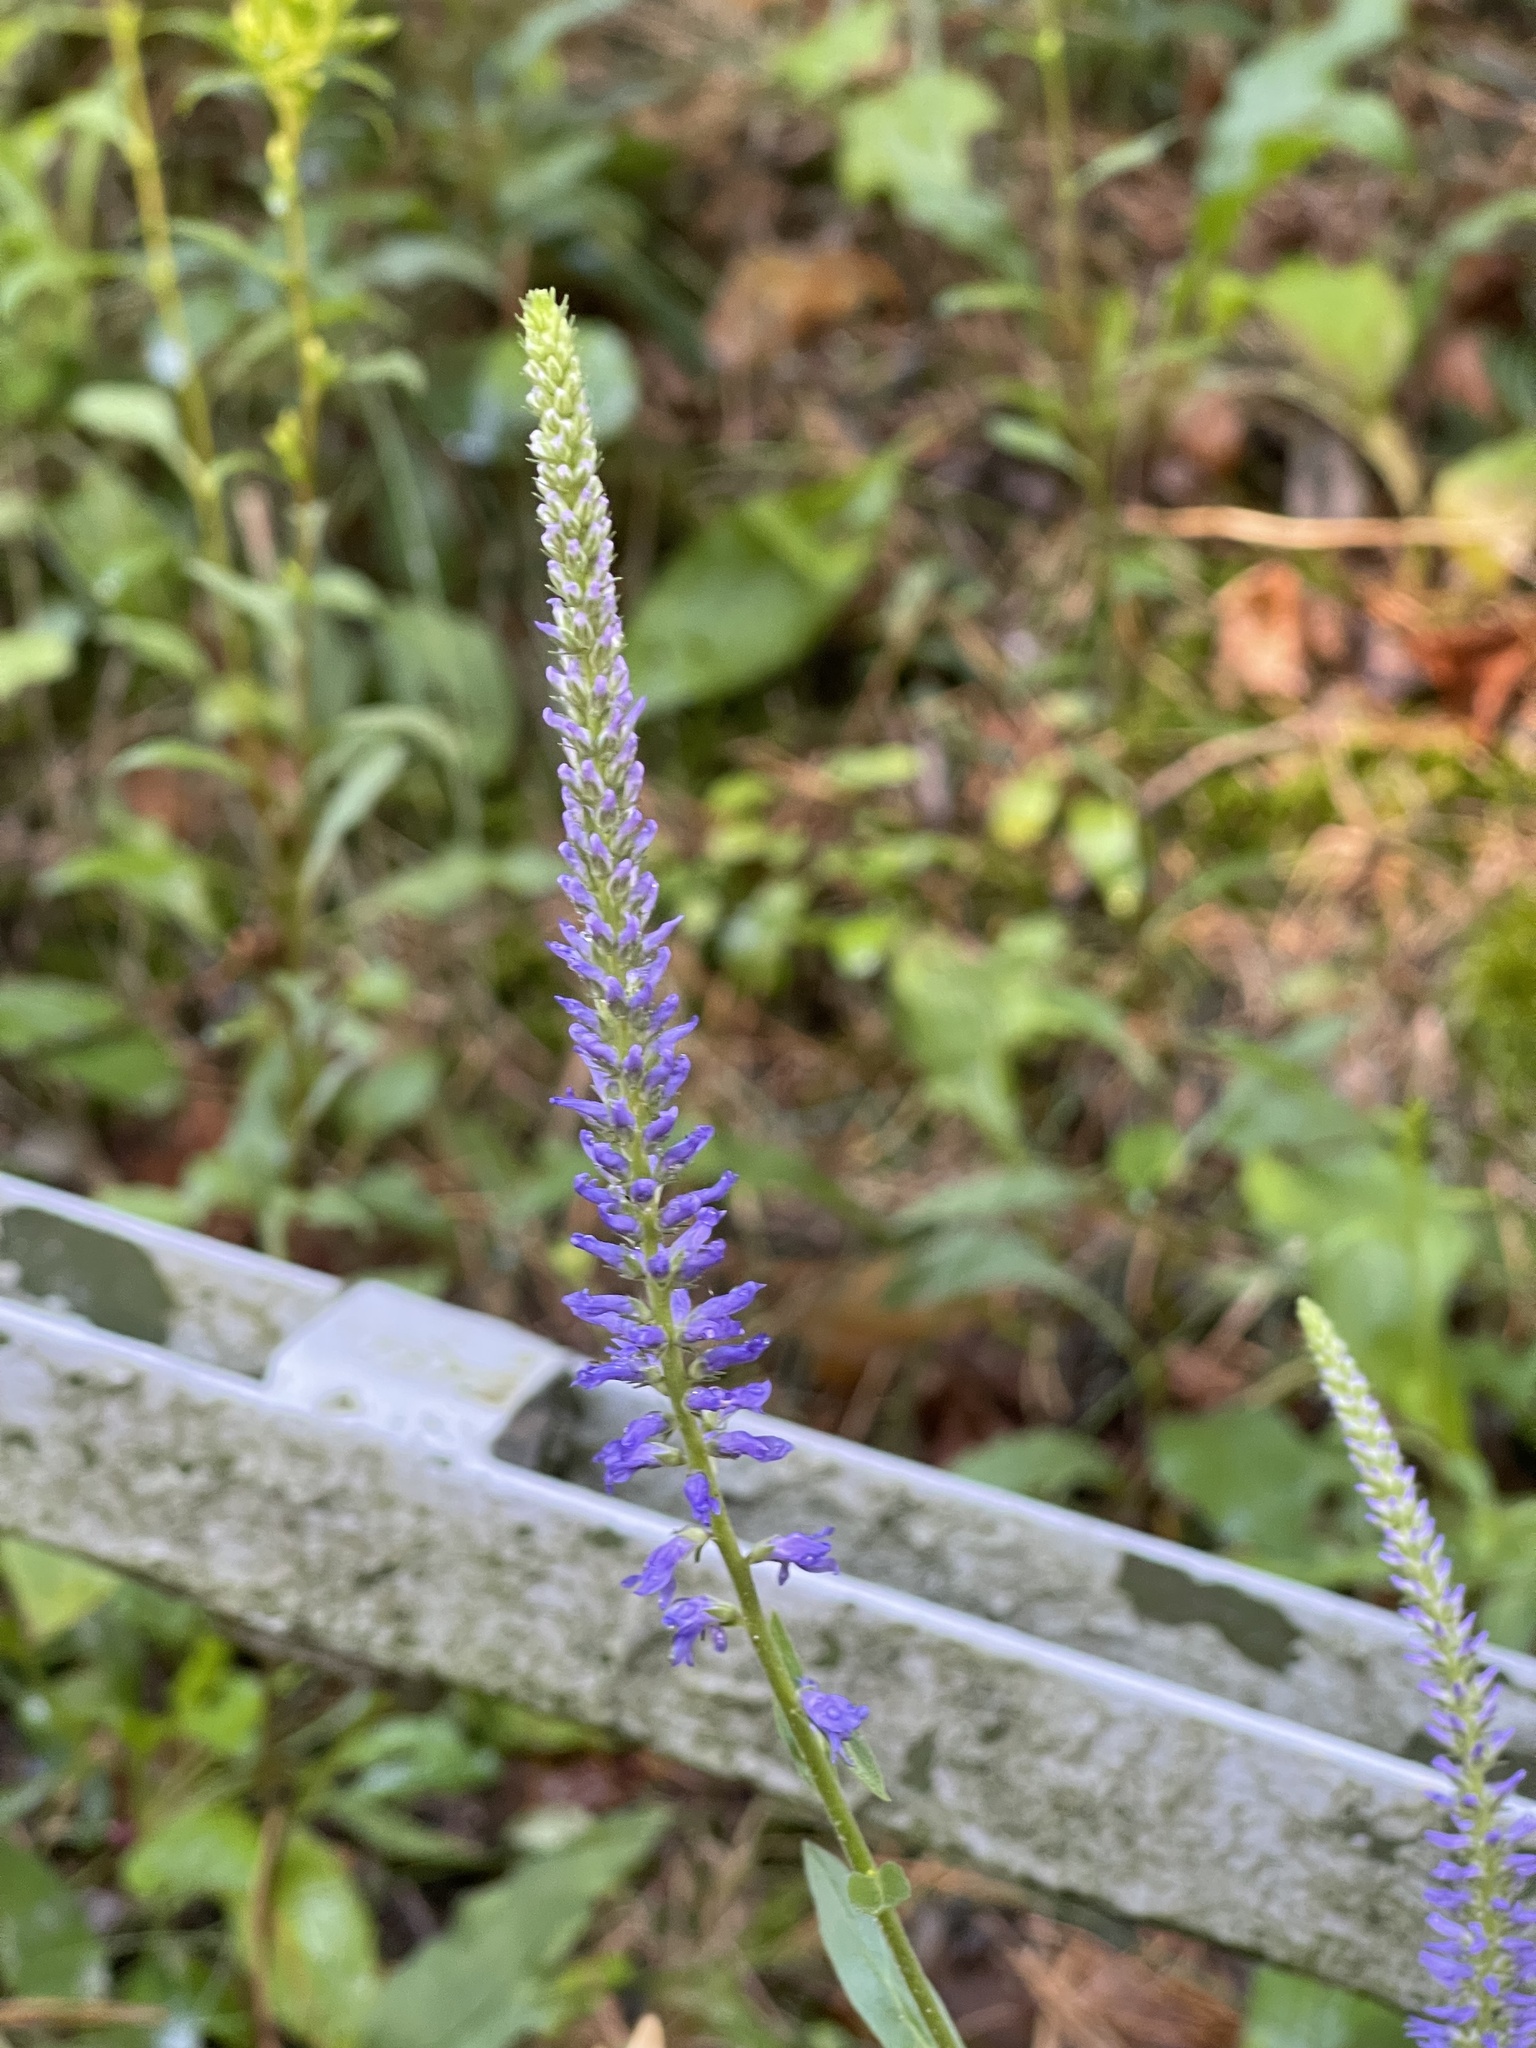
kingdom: Plantae
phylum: Tracheophyta
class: Magnoliopsida
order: Lamiales
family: Plantaginaceae
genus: Veronica
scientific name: Veronica spicata
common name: Spiked speedwell
